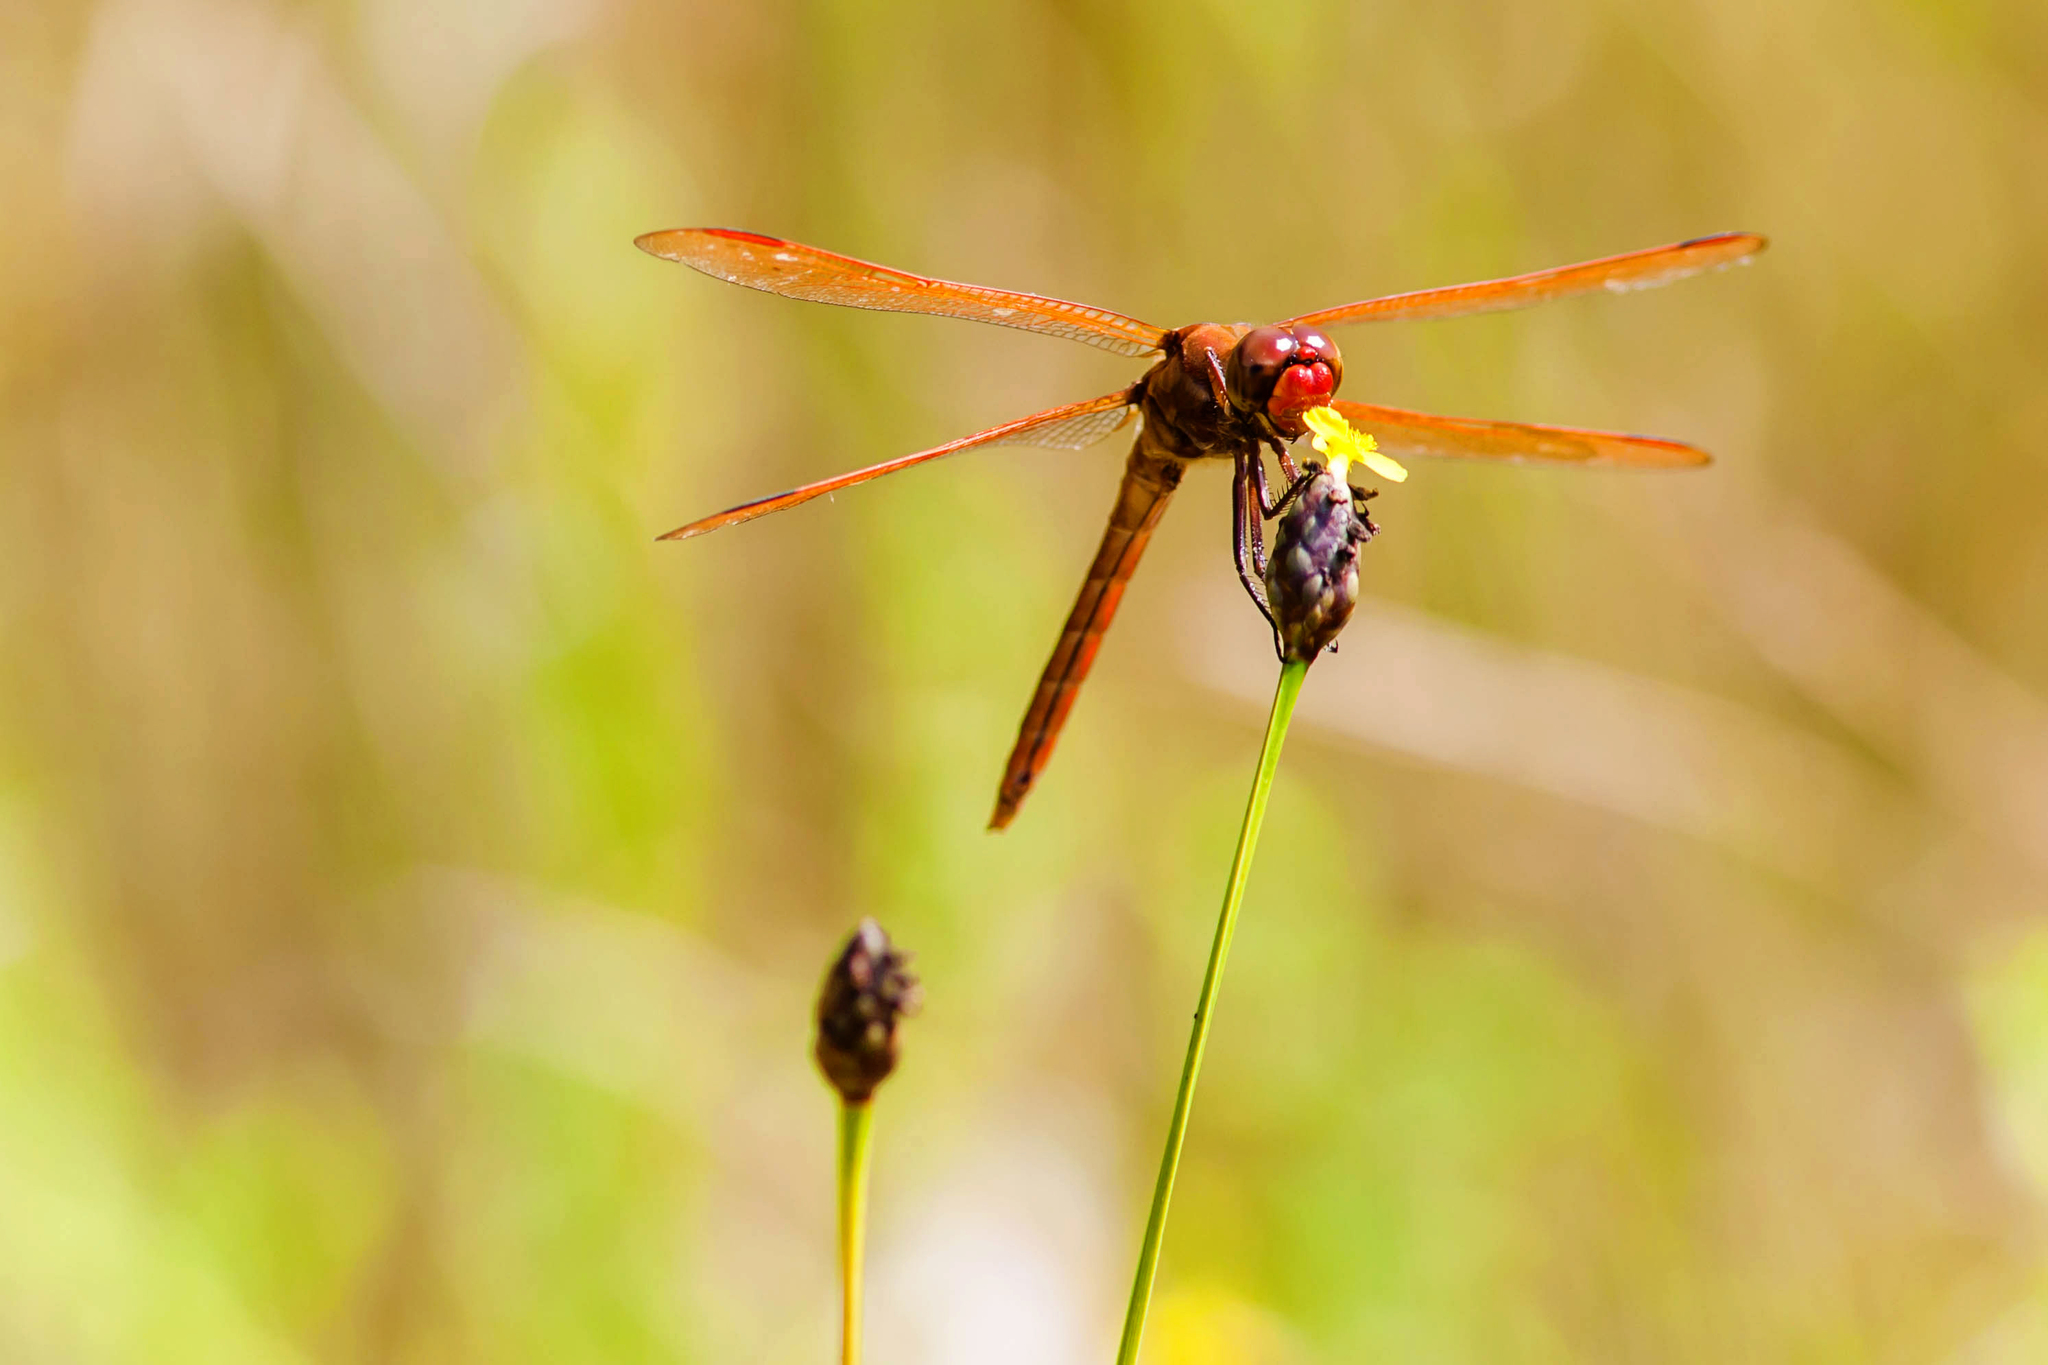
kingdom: Animalia
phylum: Arthropoda
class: Insecta
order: Odonata
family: Libellulidae
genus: Libellula
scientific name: Libellula auripennis
